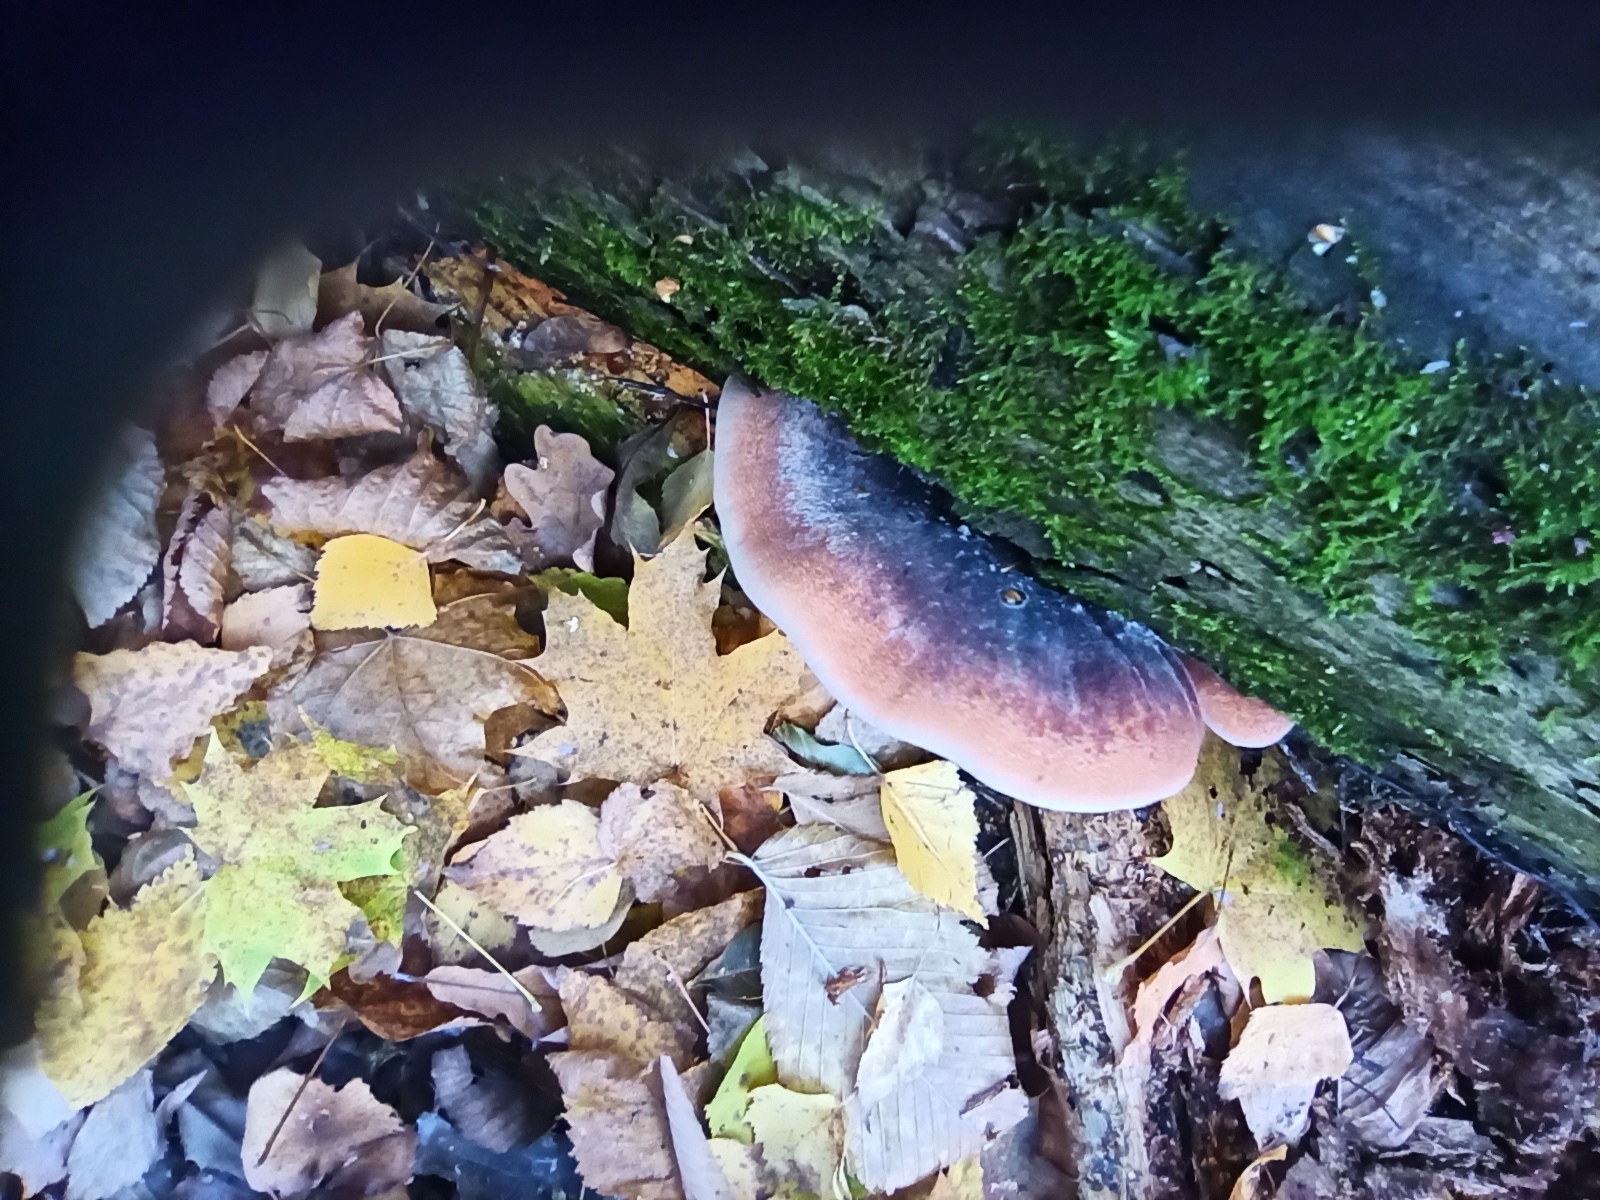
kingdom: Fungi
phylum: Basidiomycota
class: Agaricomycetes
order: Polyporales
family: Ischnodermataceae
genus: Ischnoderma
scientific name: Ischnoderma resinosum
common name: Resinous polypore
